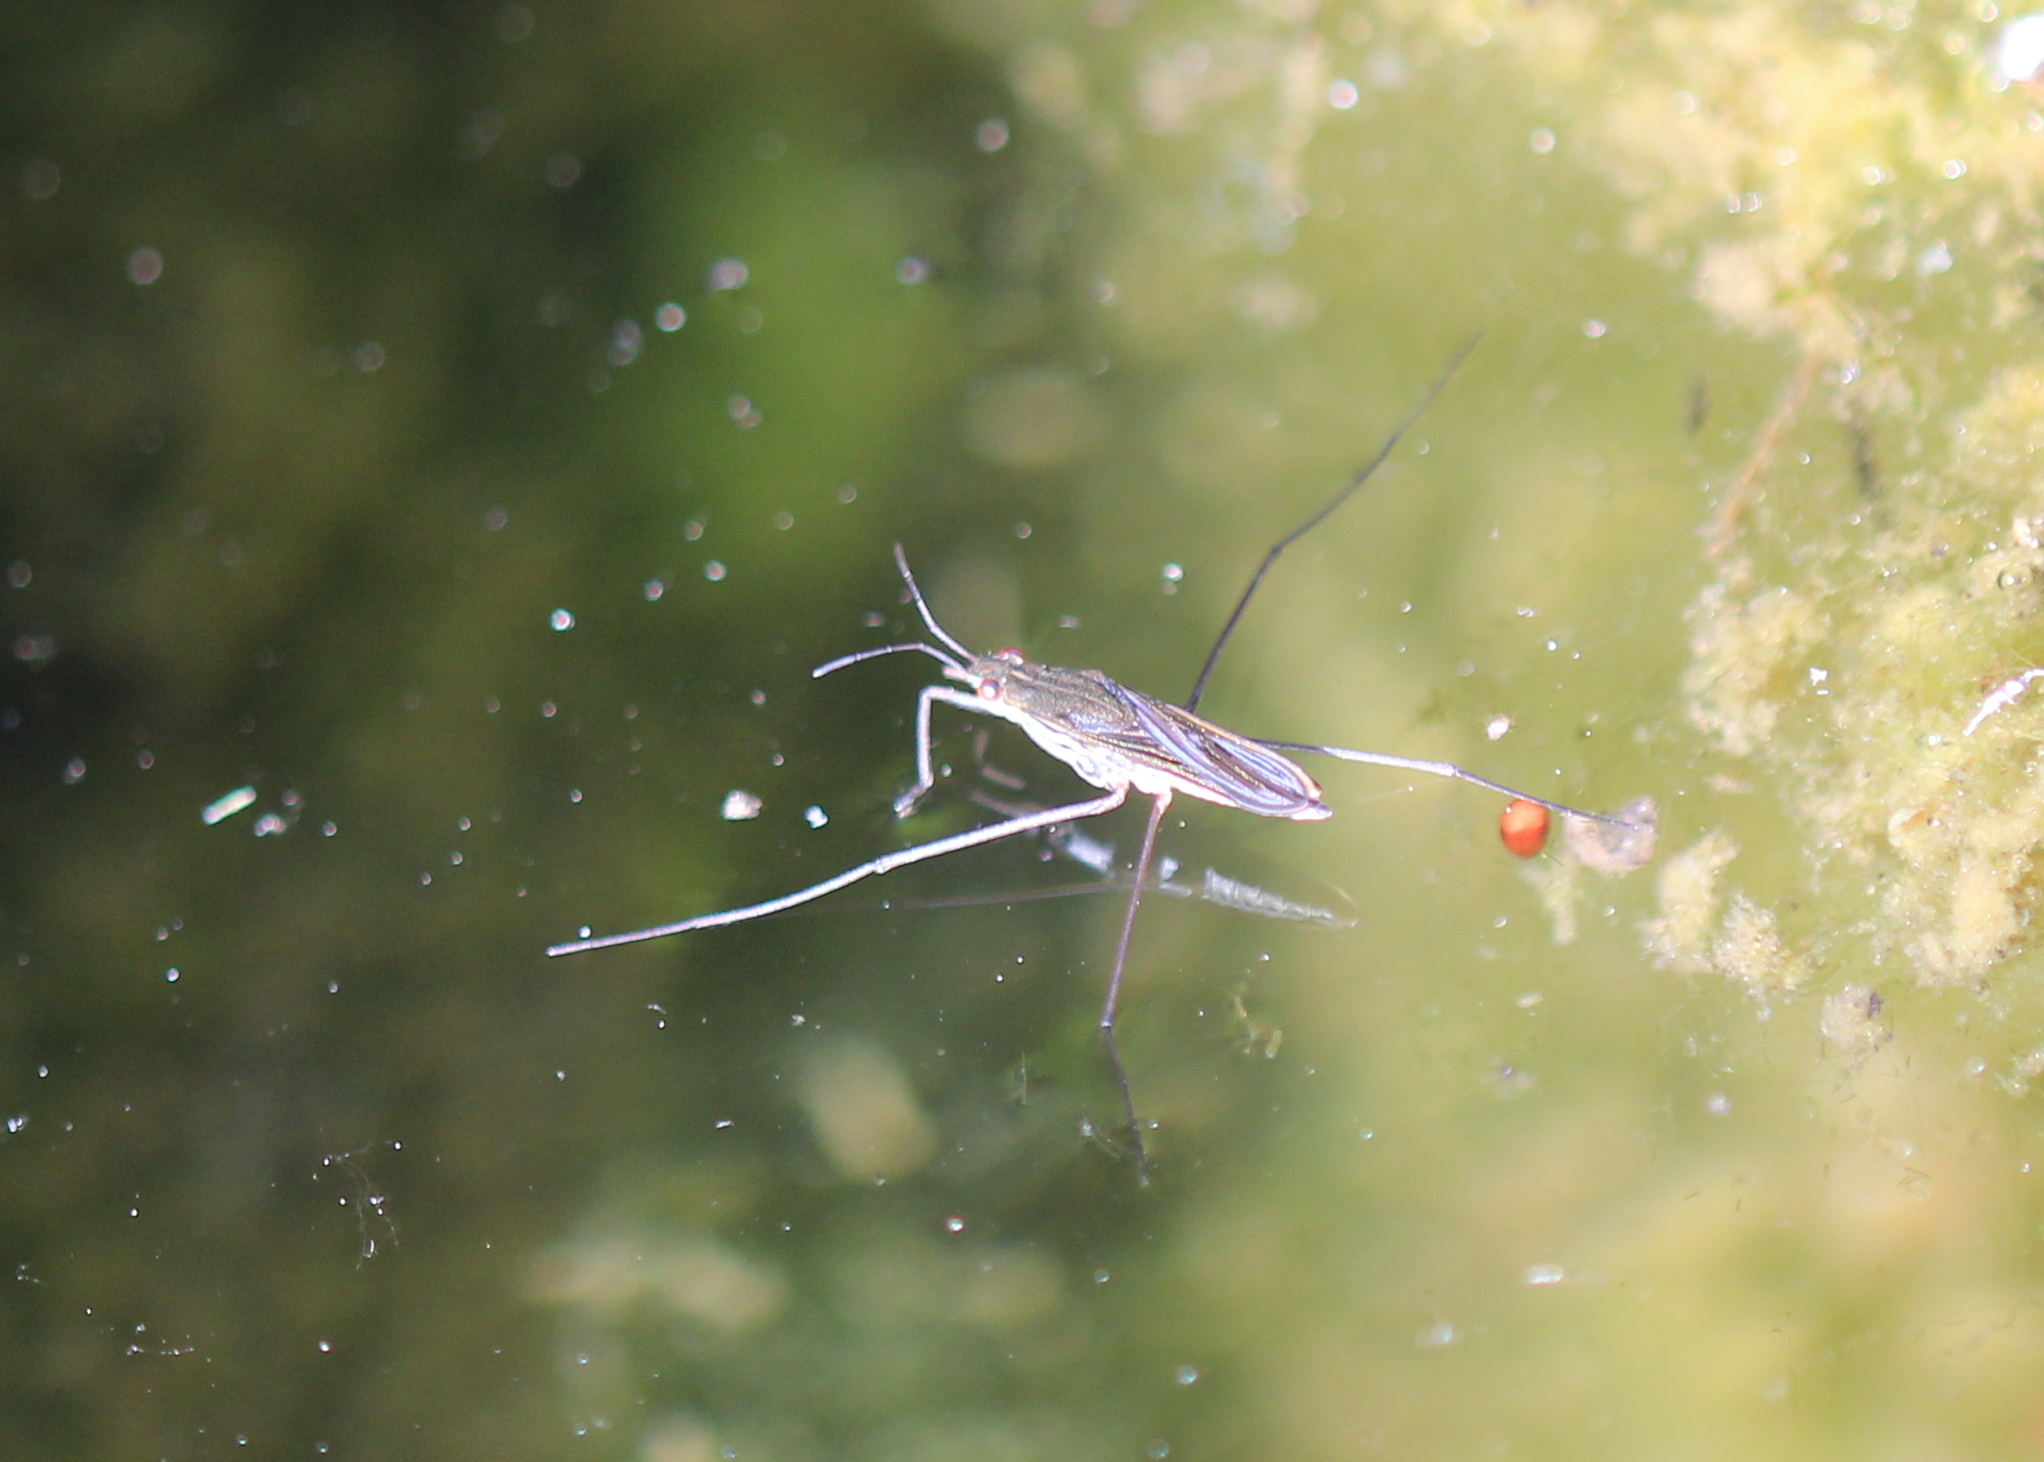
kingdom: Animalia
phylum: Arthropoda
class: Insecta
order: Hemiptera
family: Gerridae
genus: Gerris
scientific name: Gerris
